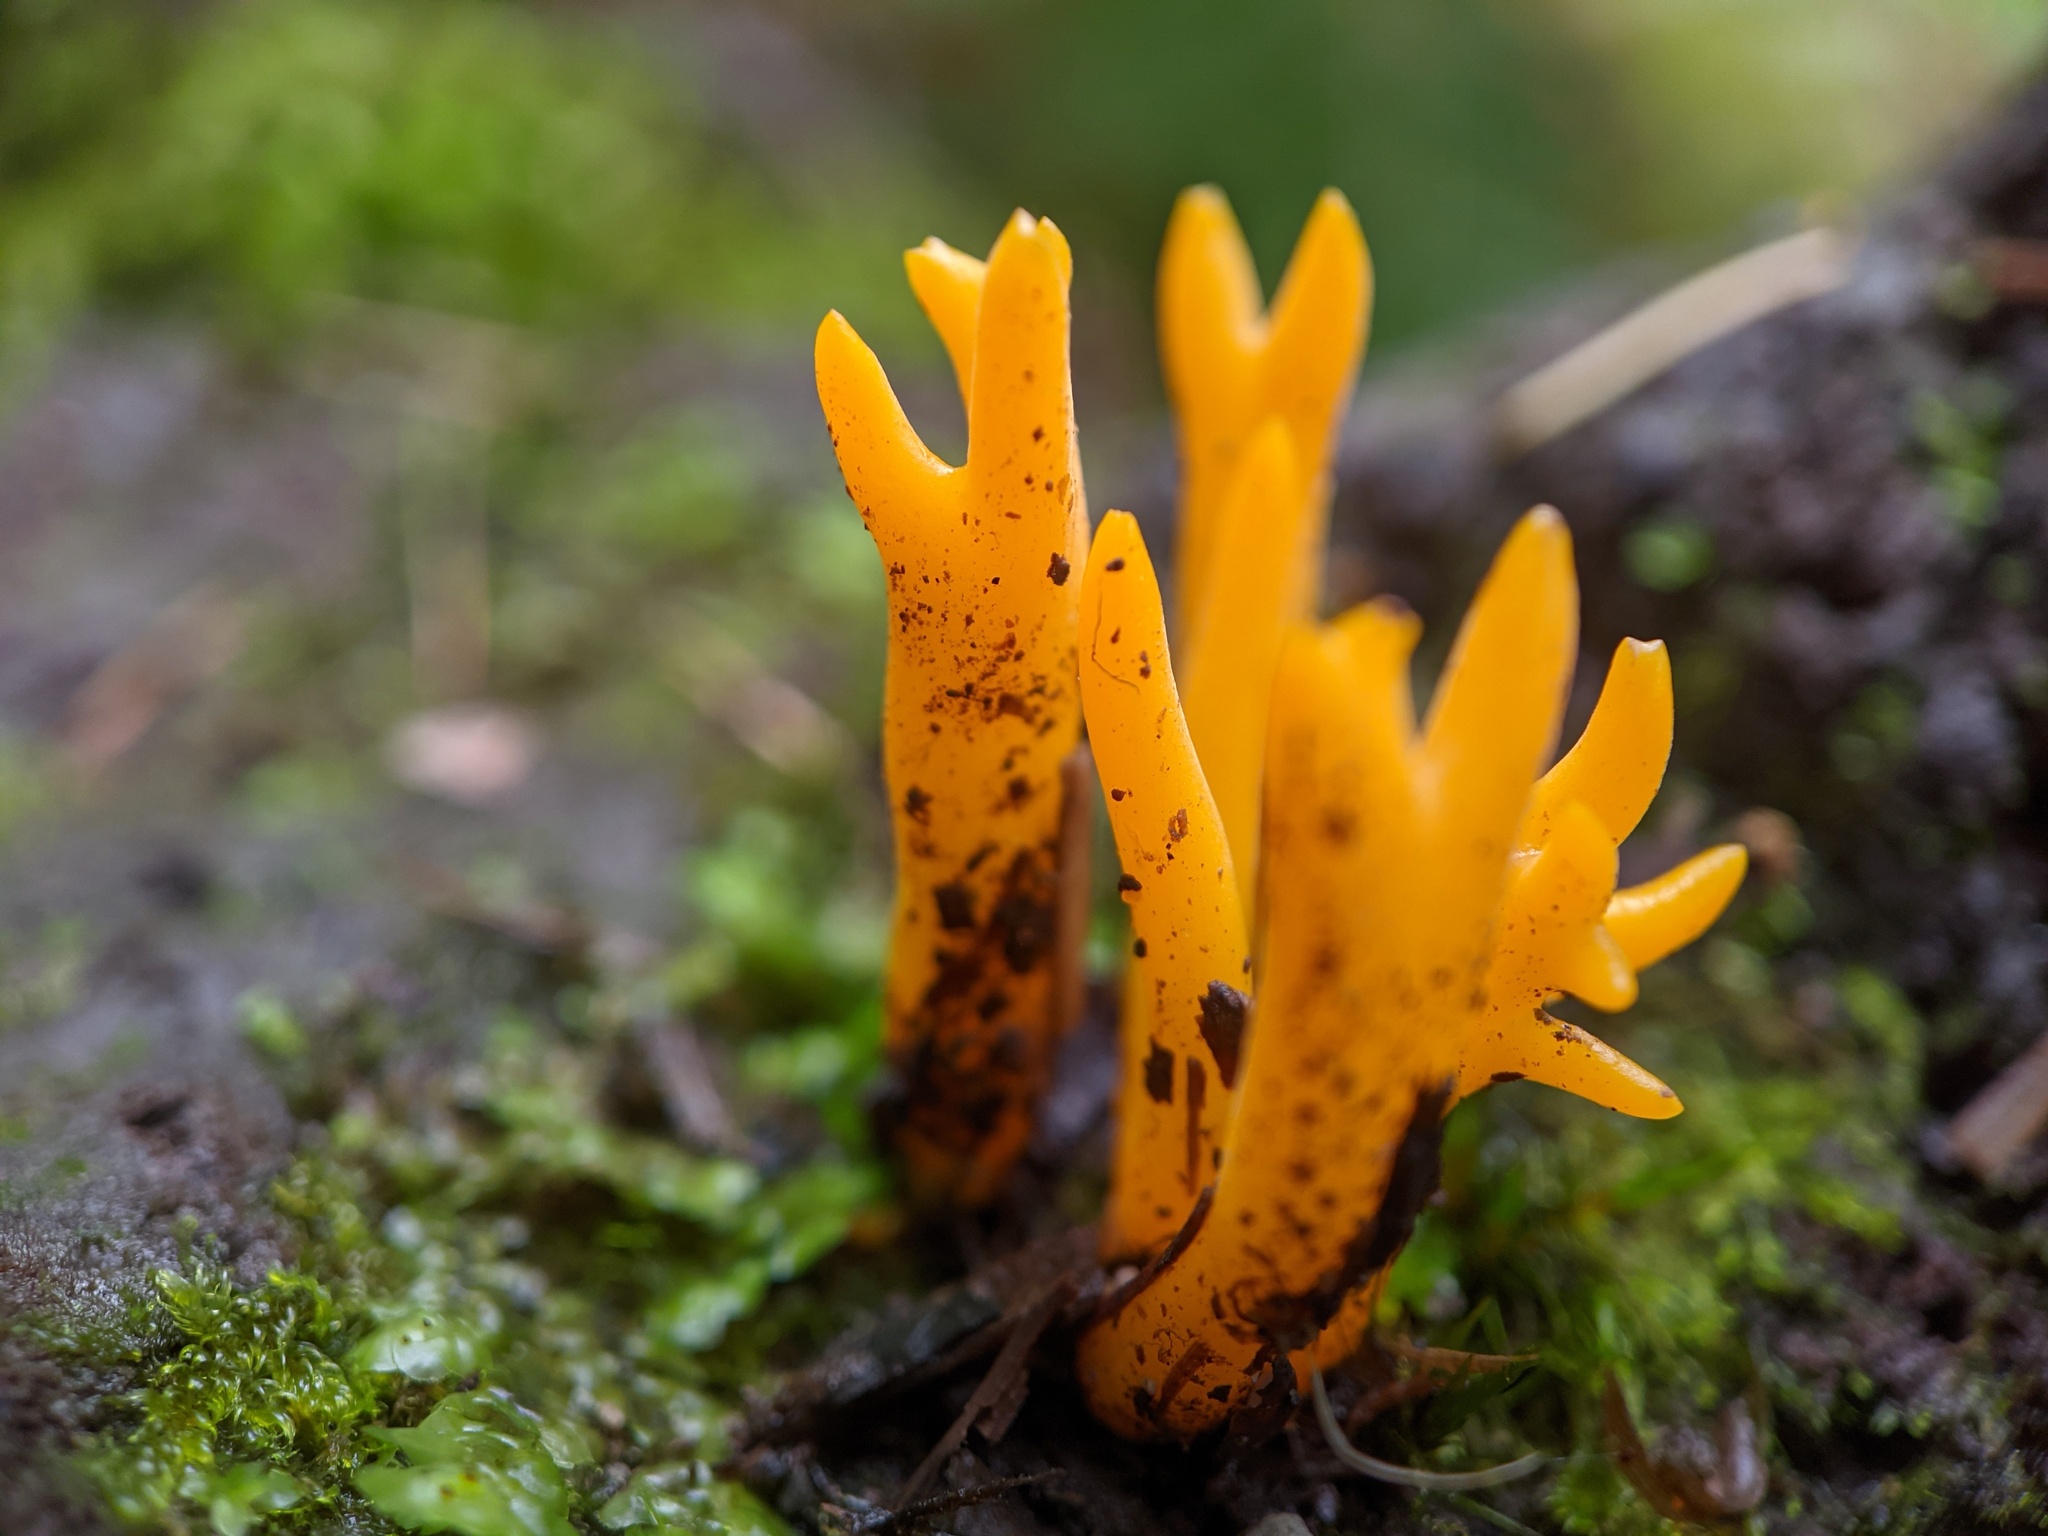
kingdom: Fungi
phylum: Basidiomycota
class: Dacrymycetes
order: Dacrymycetales
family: Dacrymycetaceae
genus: Calocera
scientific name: Calocera viscosa
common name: Yellow stagshorn
